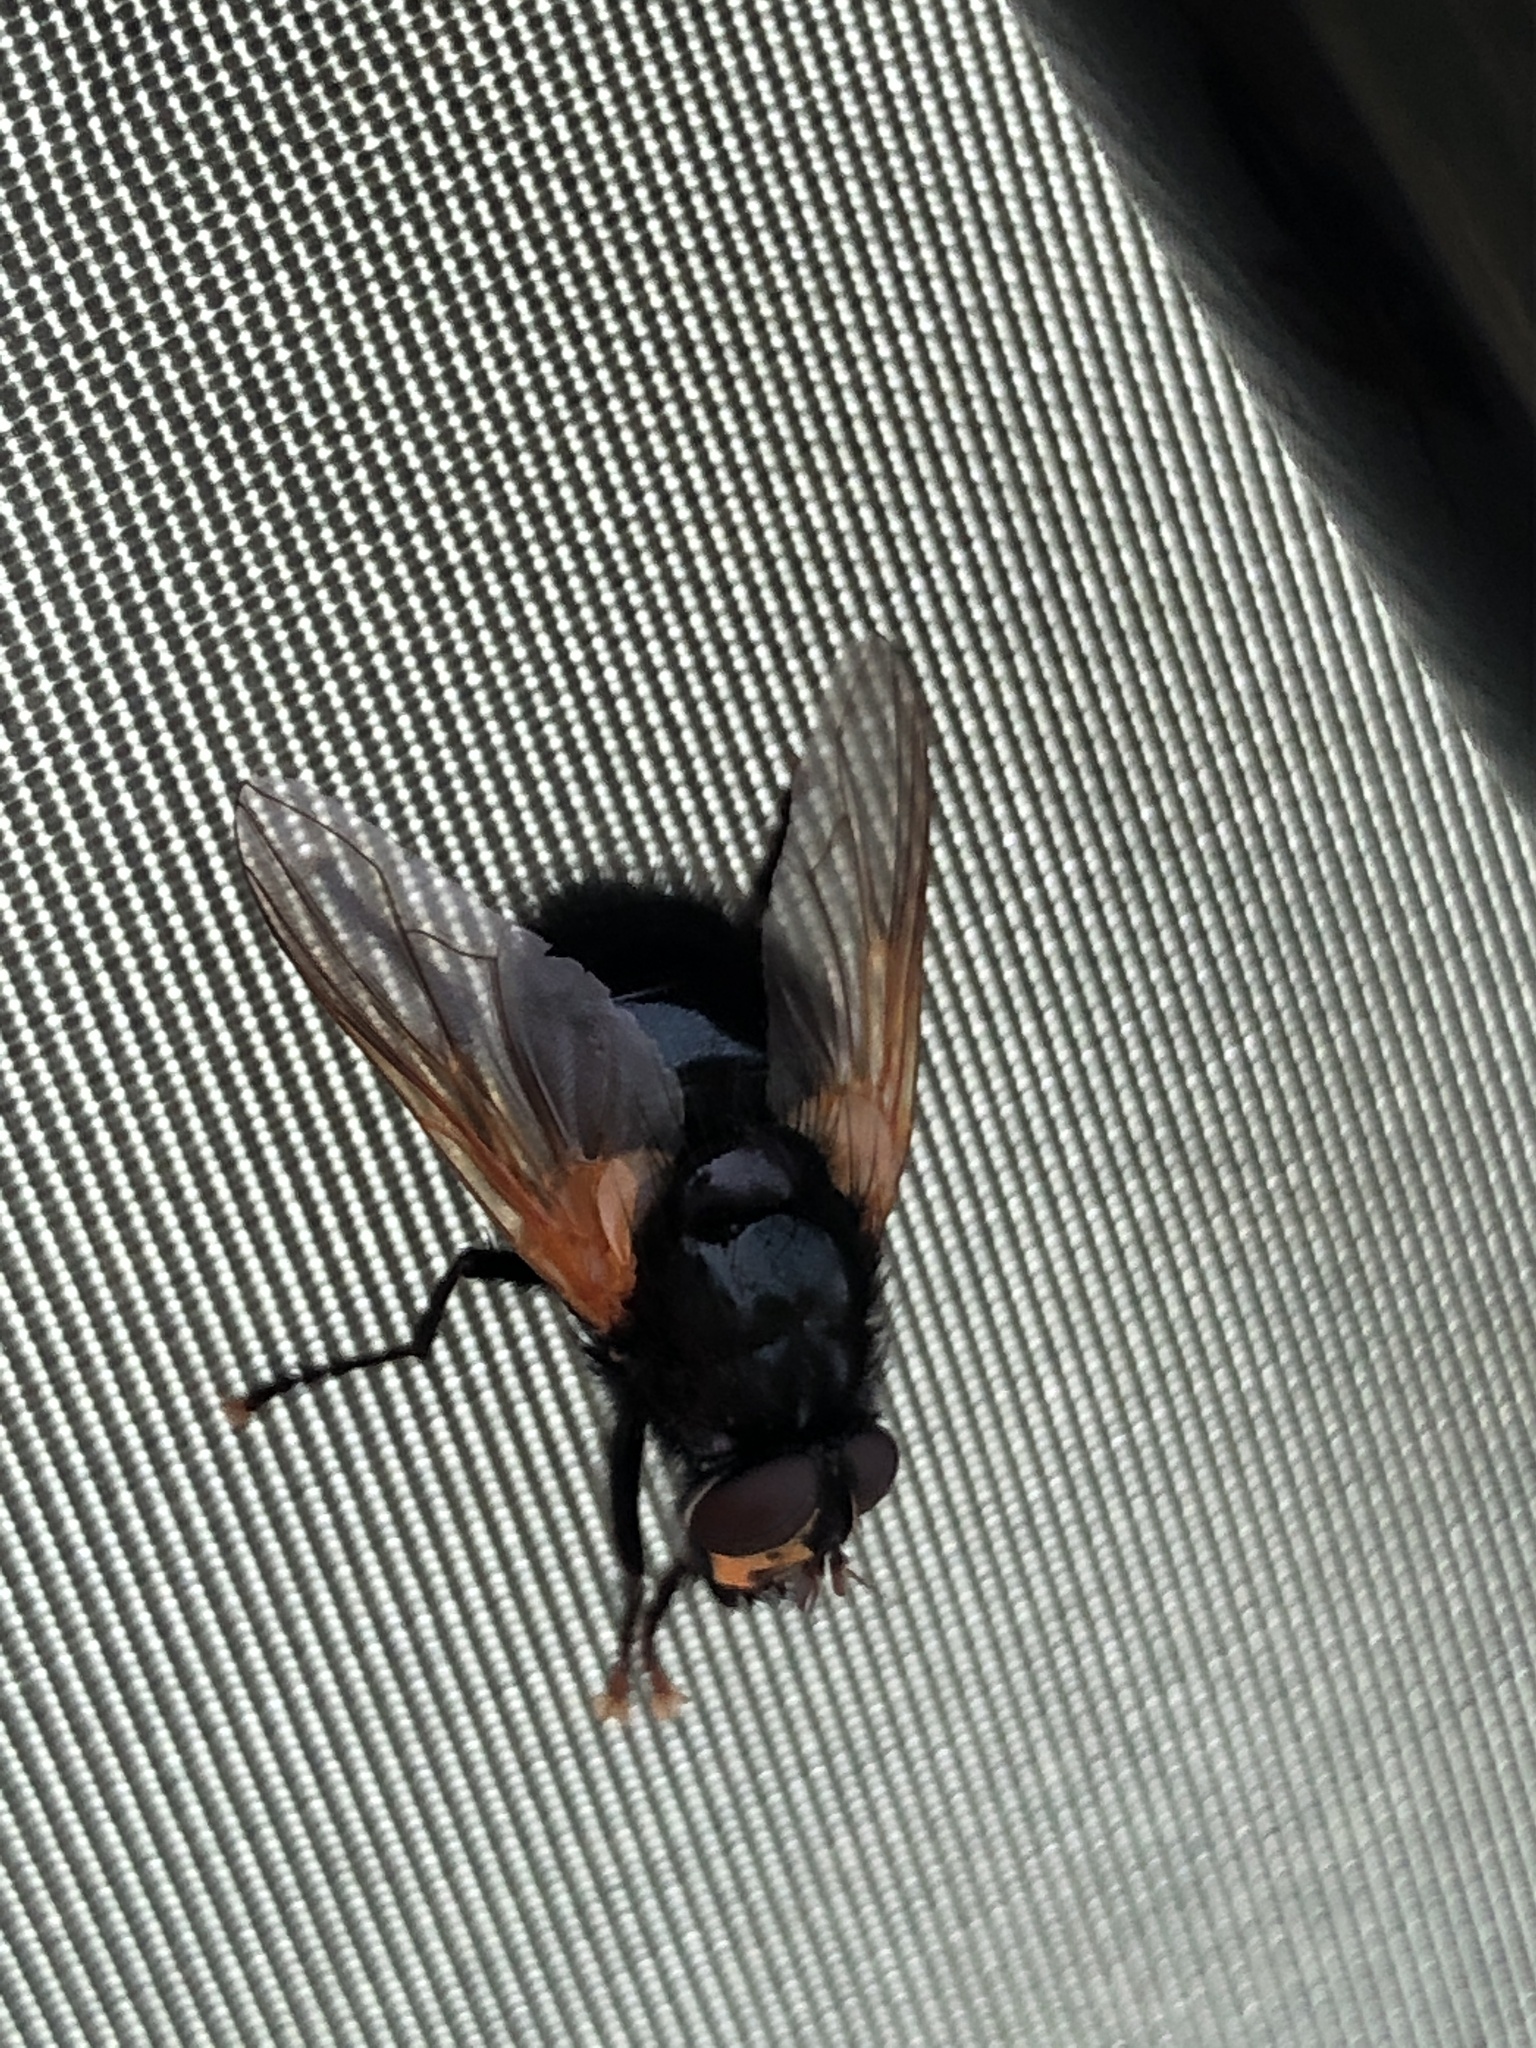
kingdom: Animalia
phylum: Arthropoda
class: Insecta
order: Diptera
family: Muscidae
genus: Mesembrina
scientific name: Mesembrina meridiana
